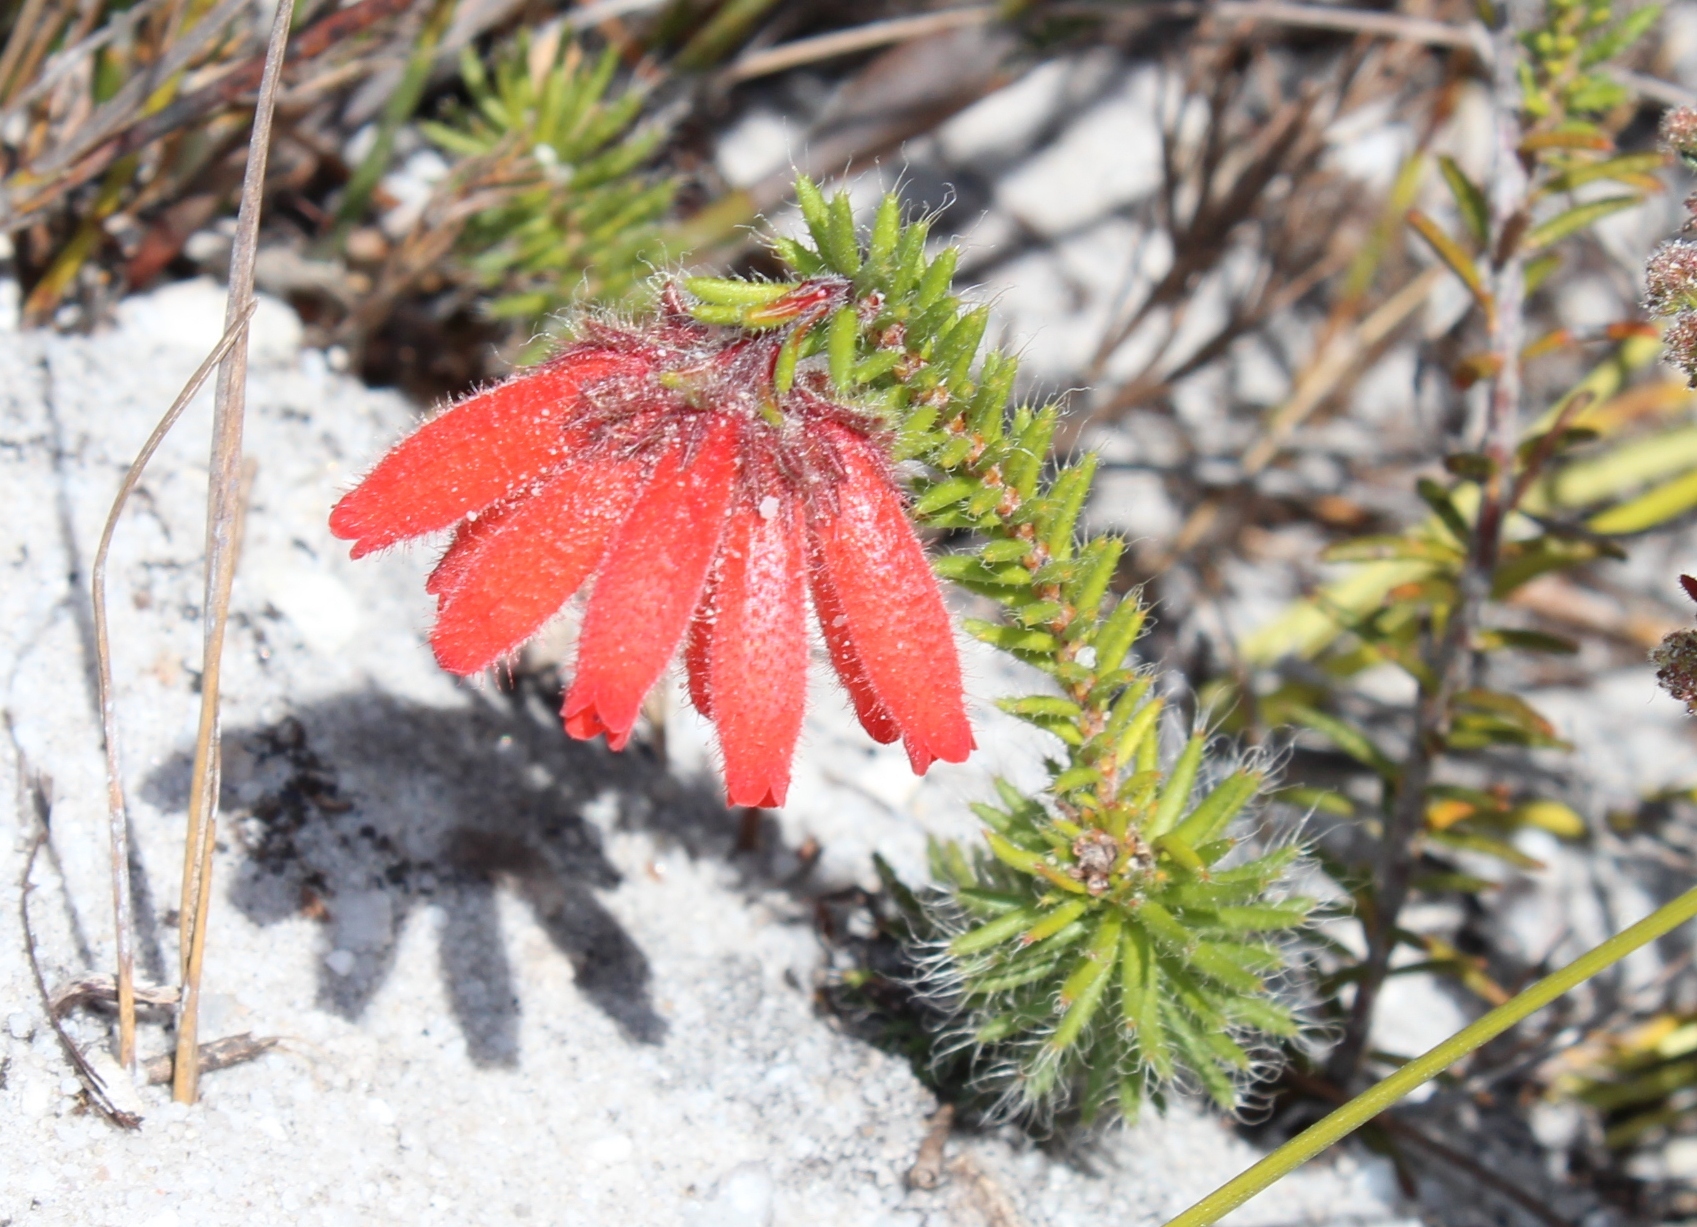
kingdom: Plantae
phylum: Tracheophyta
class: Magnoliopsida
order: Ericales
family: Ericaceae
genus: Erica
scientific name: Erica cerinthoides
